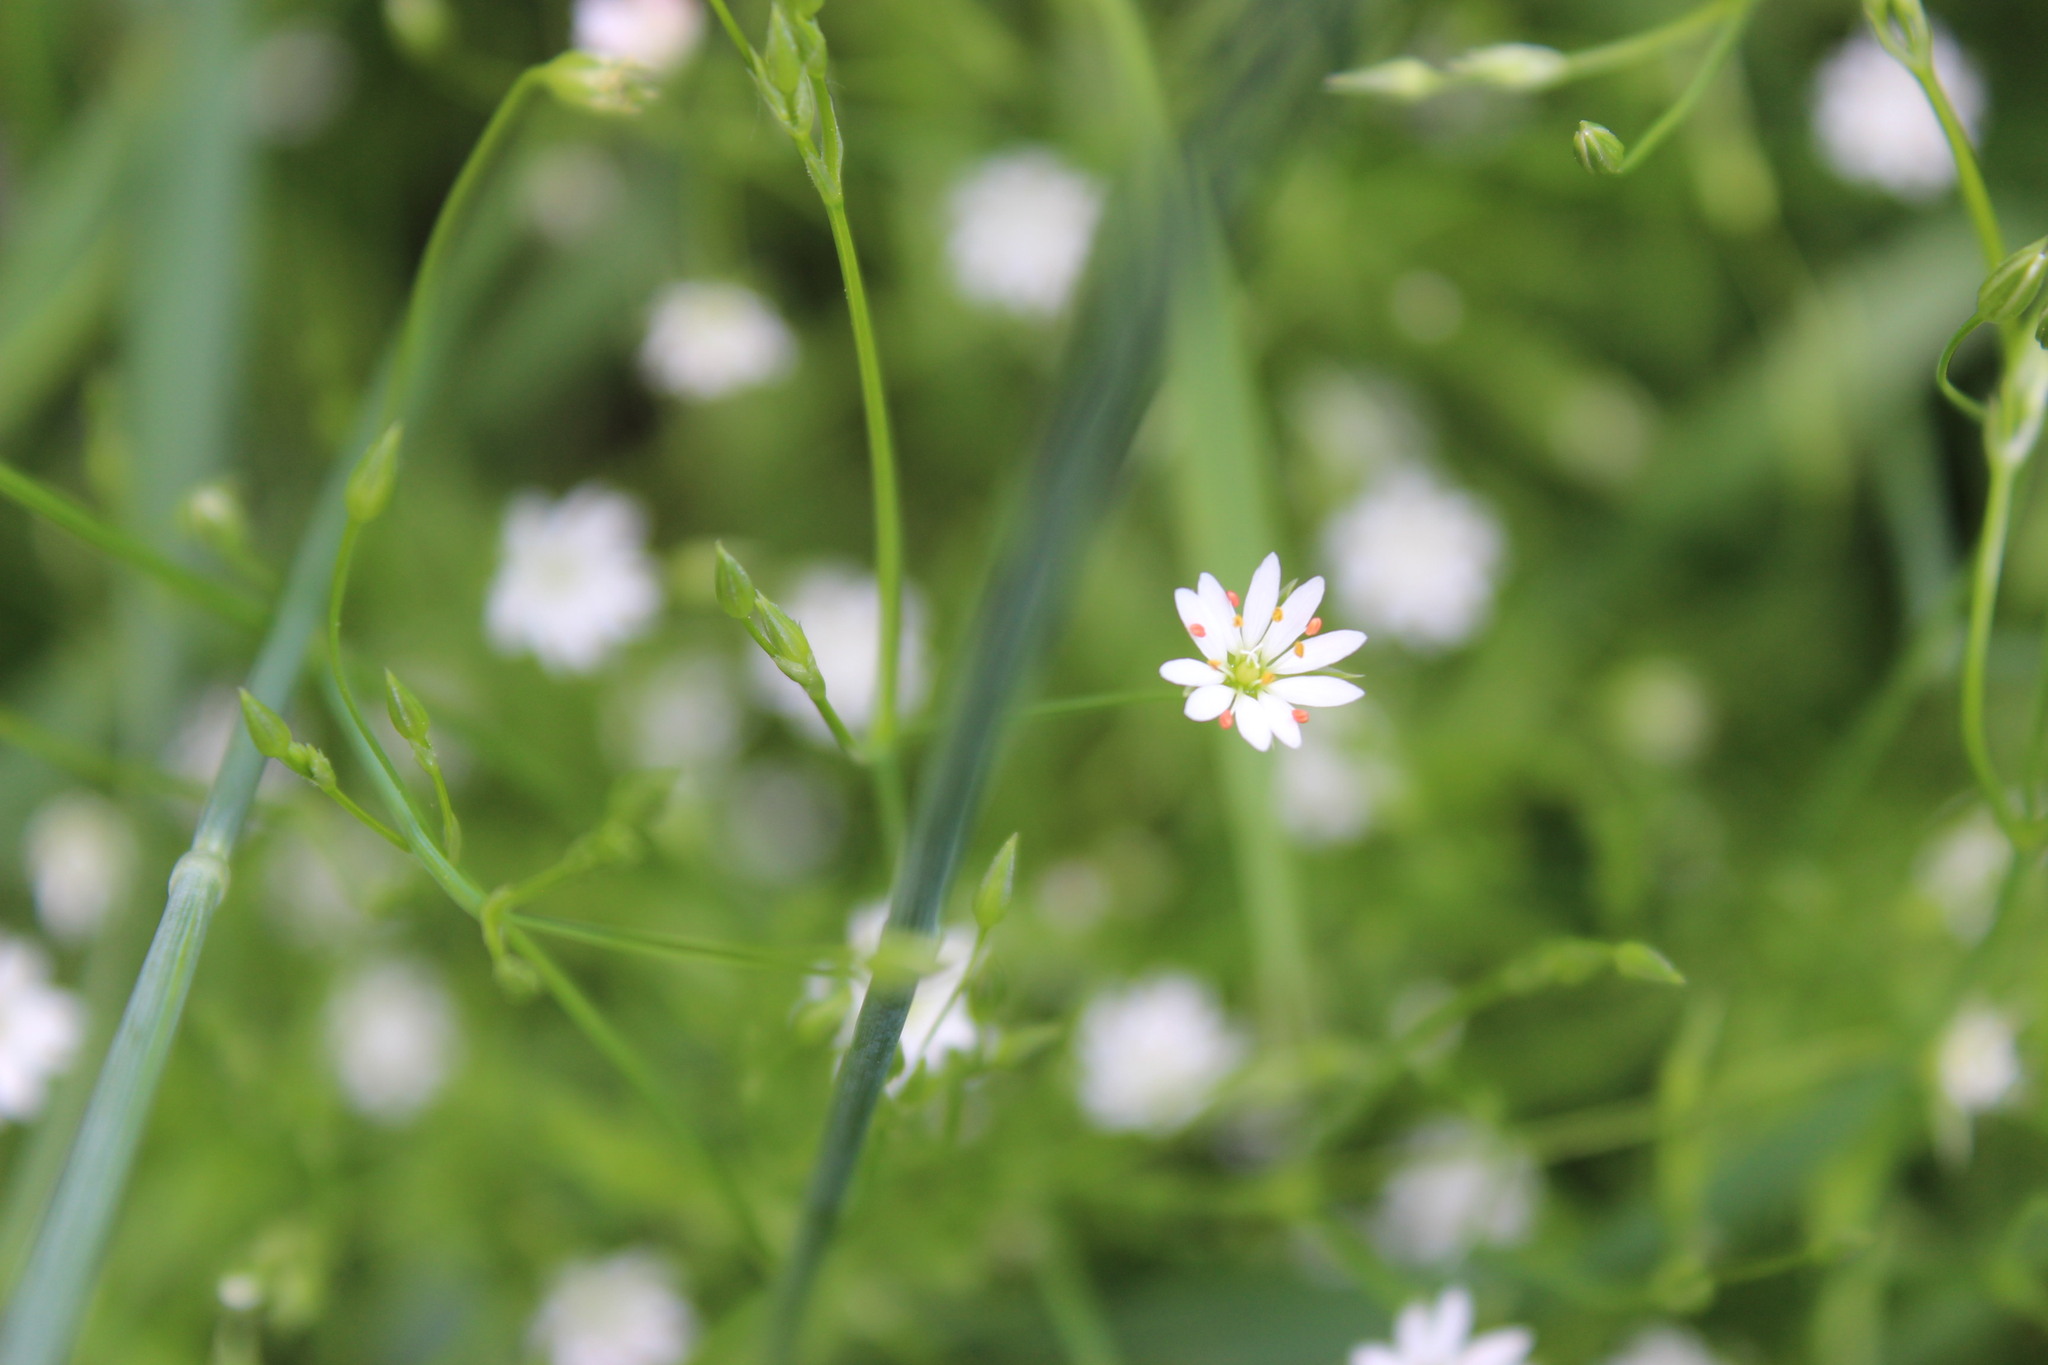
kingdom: Plantae
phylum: Tracheophyta
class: Magnoliopsida
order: Caryophyllales
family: Caryophyllaceae
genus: Stellaria
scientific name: Stellaria graminea
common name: Grass-like starwort
